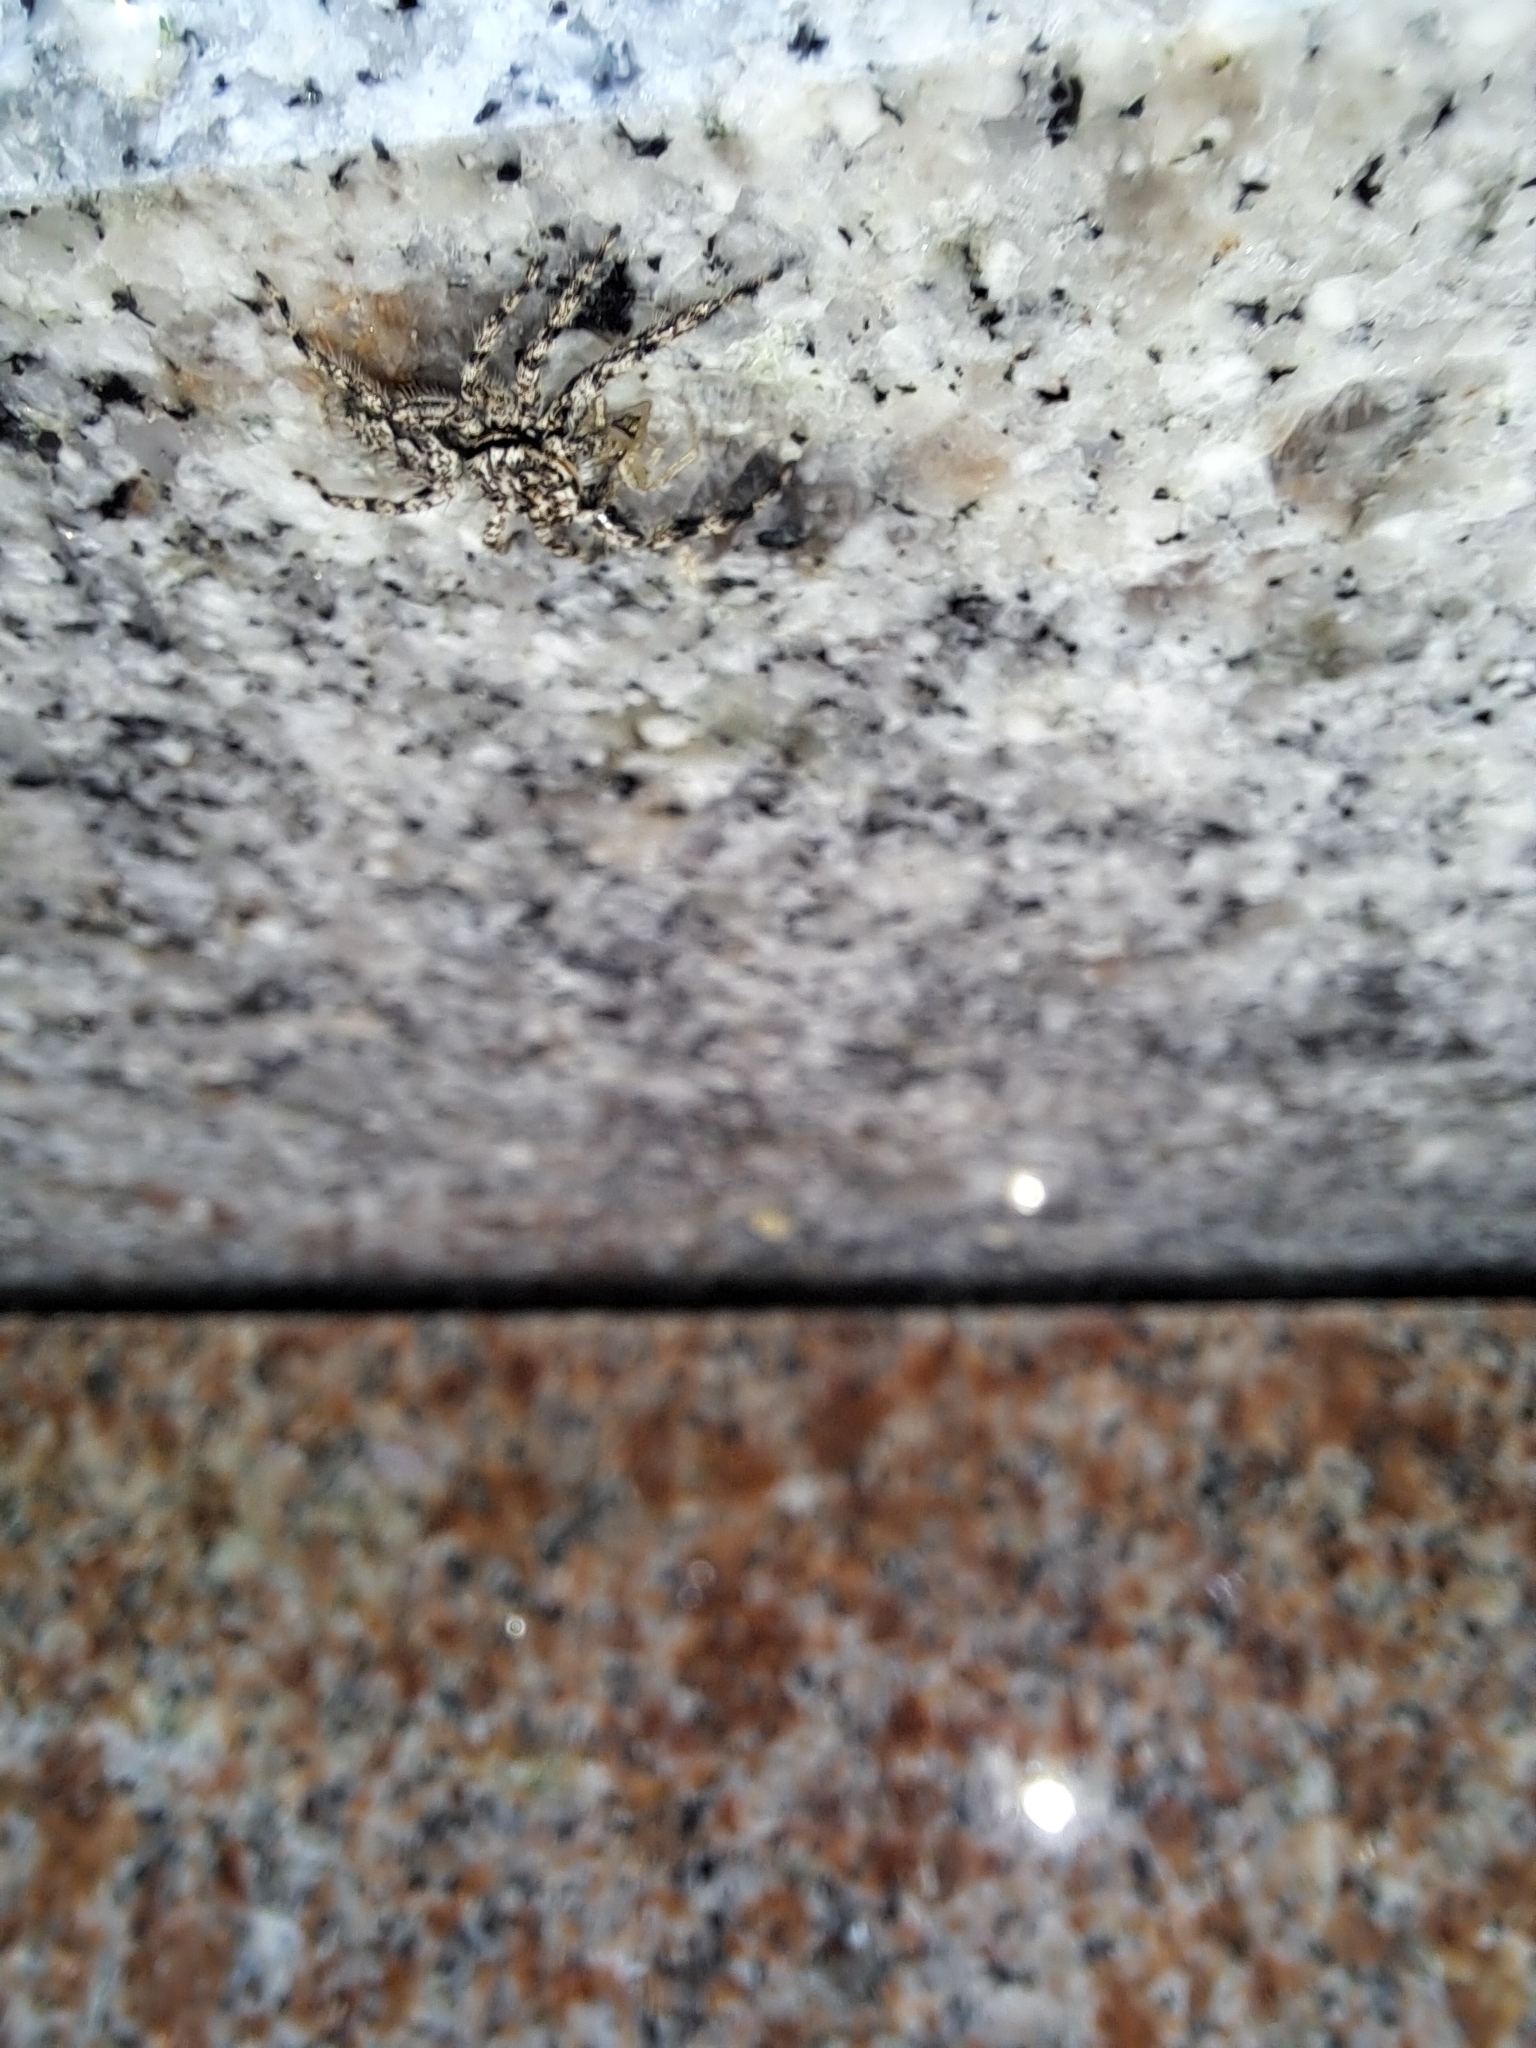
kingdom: Animalia
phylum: Arthropoda
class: Arachnida
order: Araneae
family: Salticidae
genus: Platycryptus
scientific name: Platycryptus undatus
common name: Tan jumping spider
